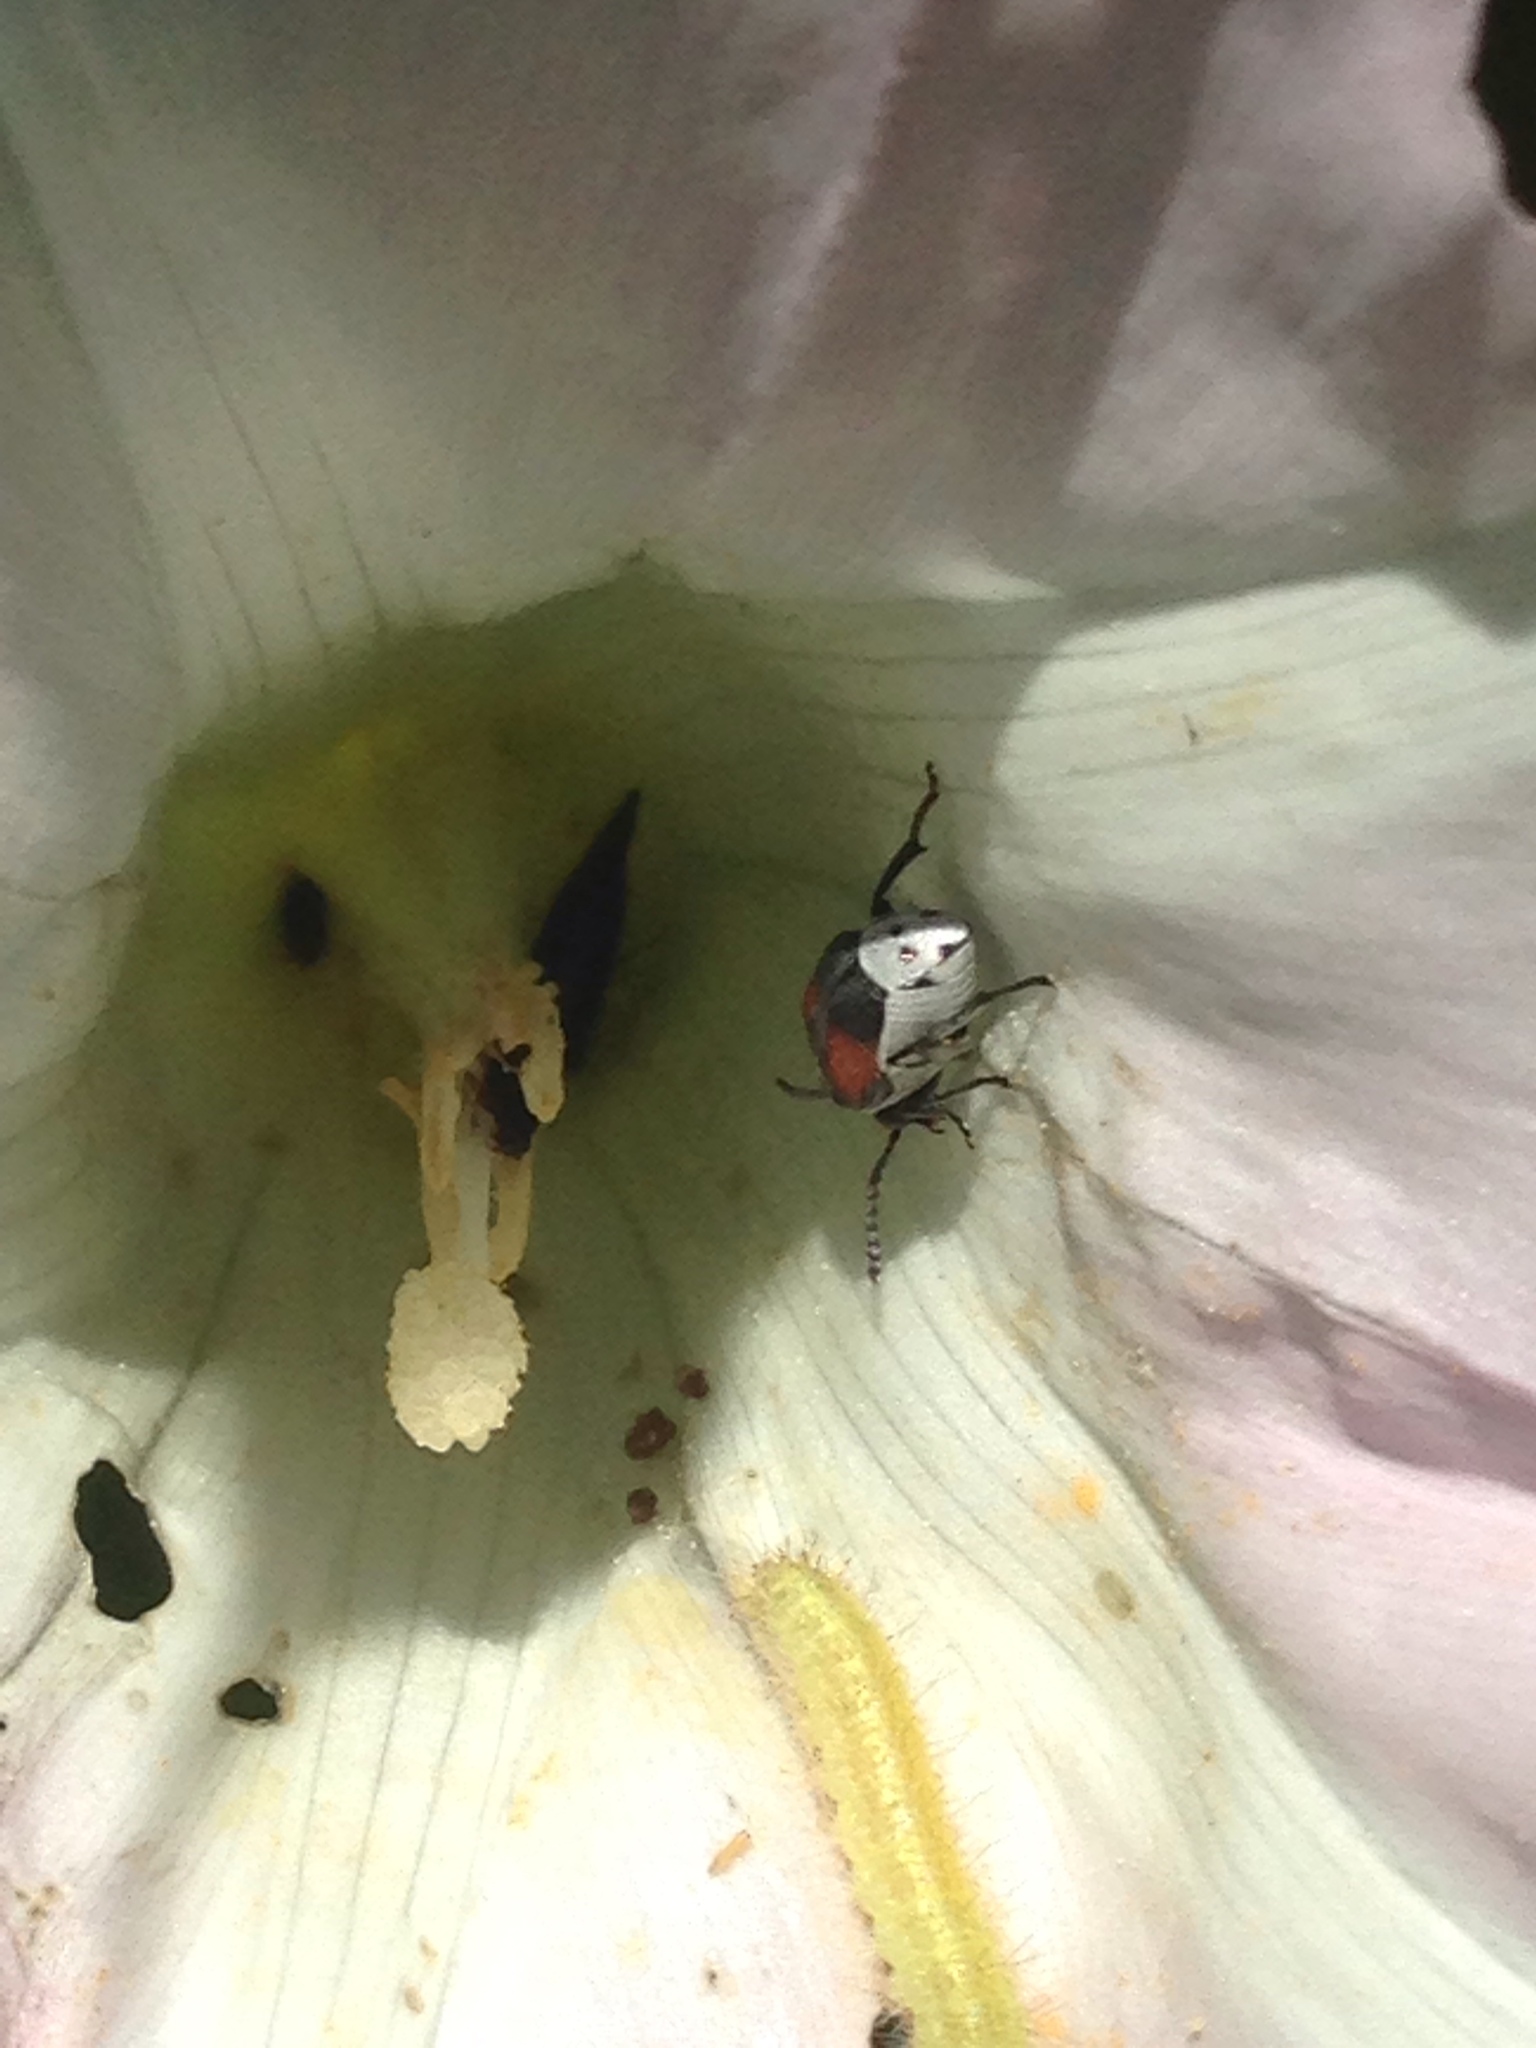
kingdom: Animalia
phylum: Arthropoda
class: Insecta
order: Coleoptera
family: Chrysomelidae
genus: Megacerus
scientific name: Megacerus discoidus
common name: Red megacerus
